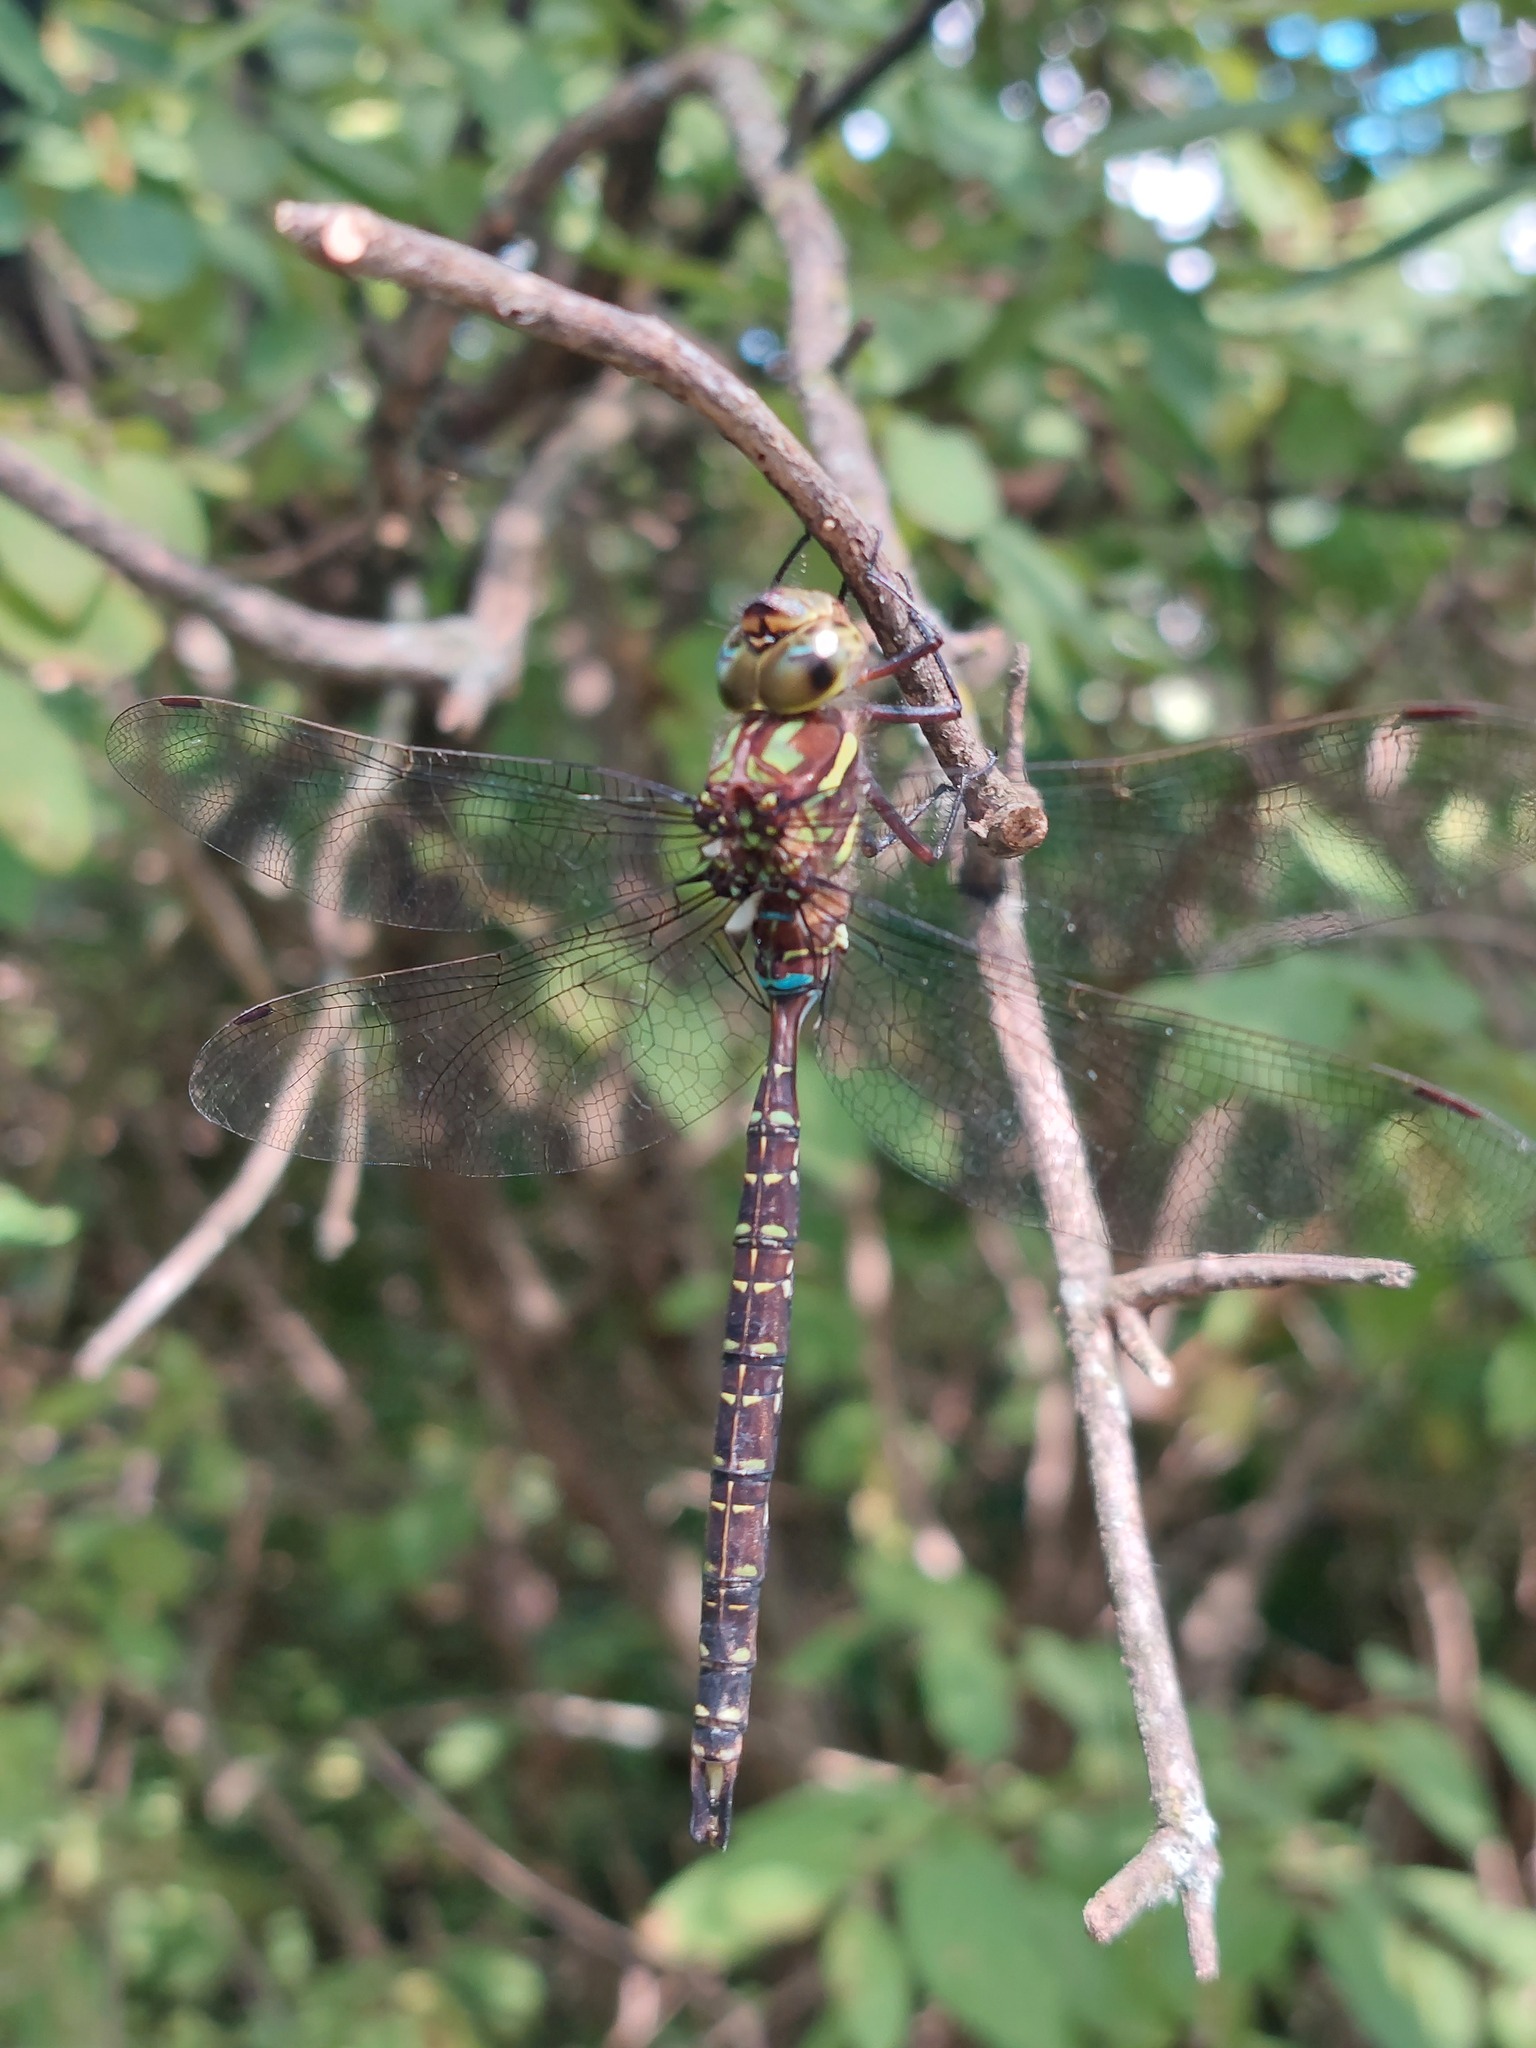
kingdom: Animalia
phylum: Arthropoda
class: Insecta
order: Odonata
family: Aeshnidae
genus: Aeshna
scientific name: Aeshna umbrosa
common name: Shadow darner
